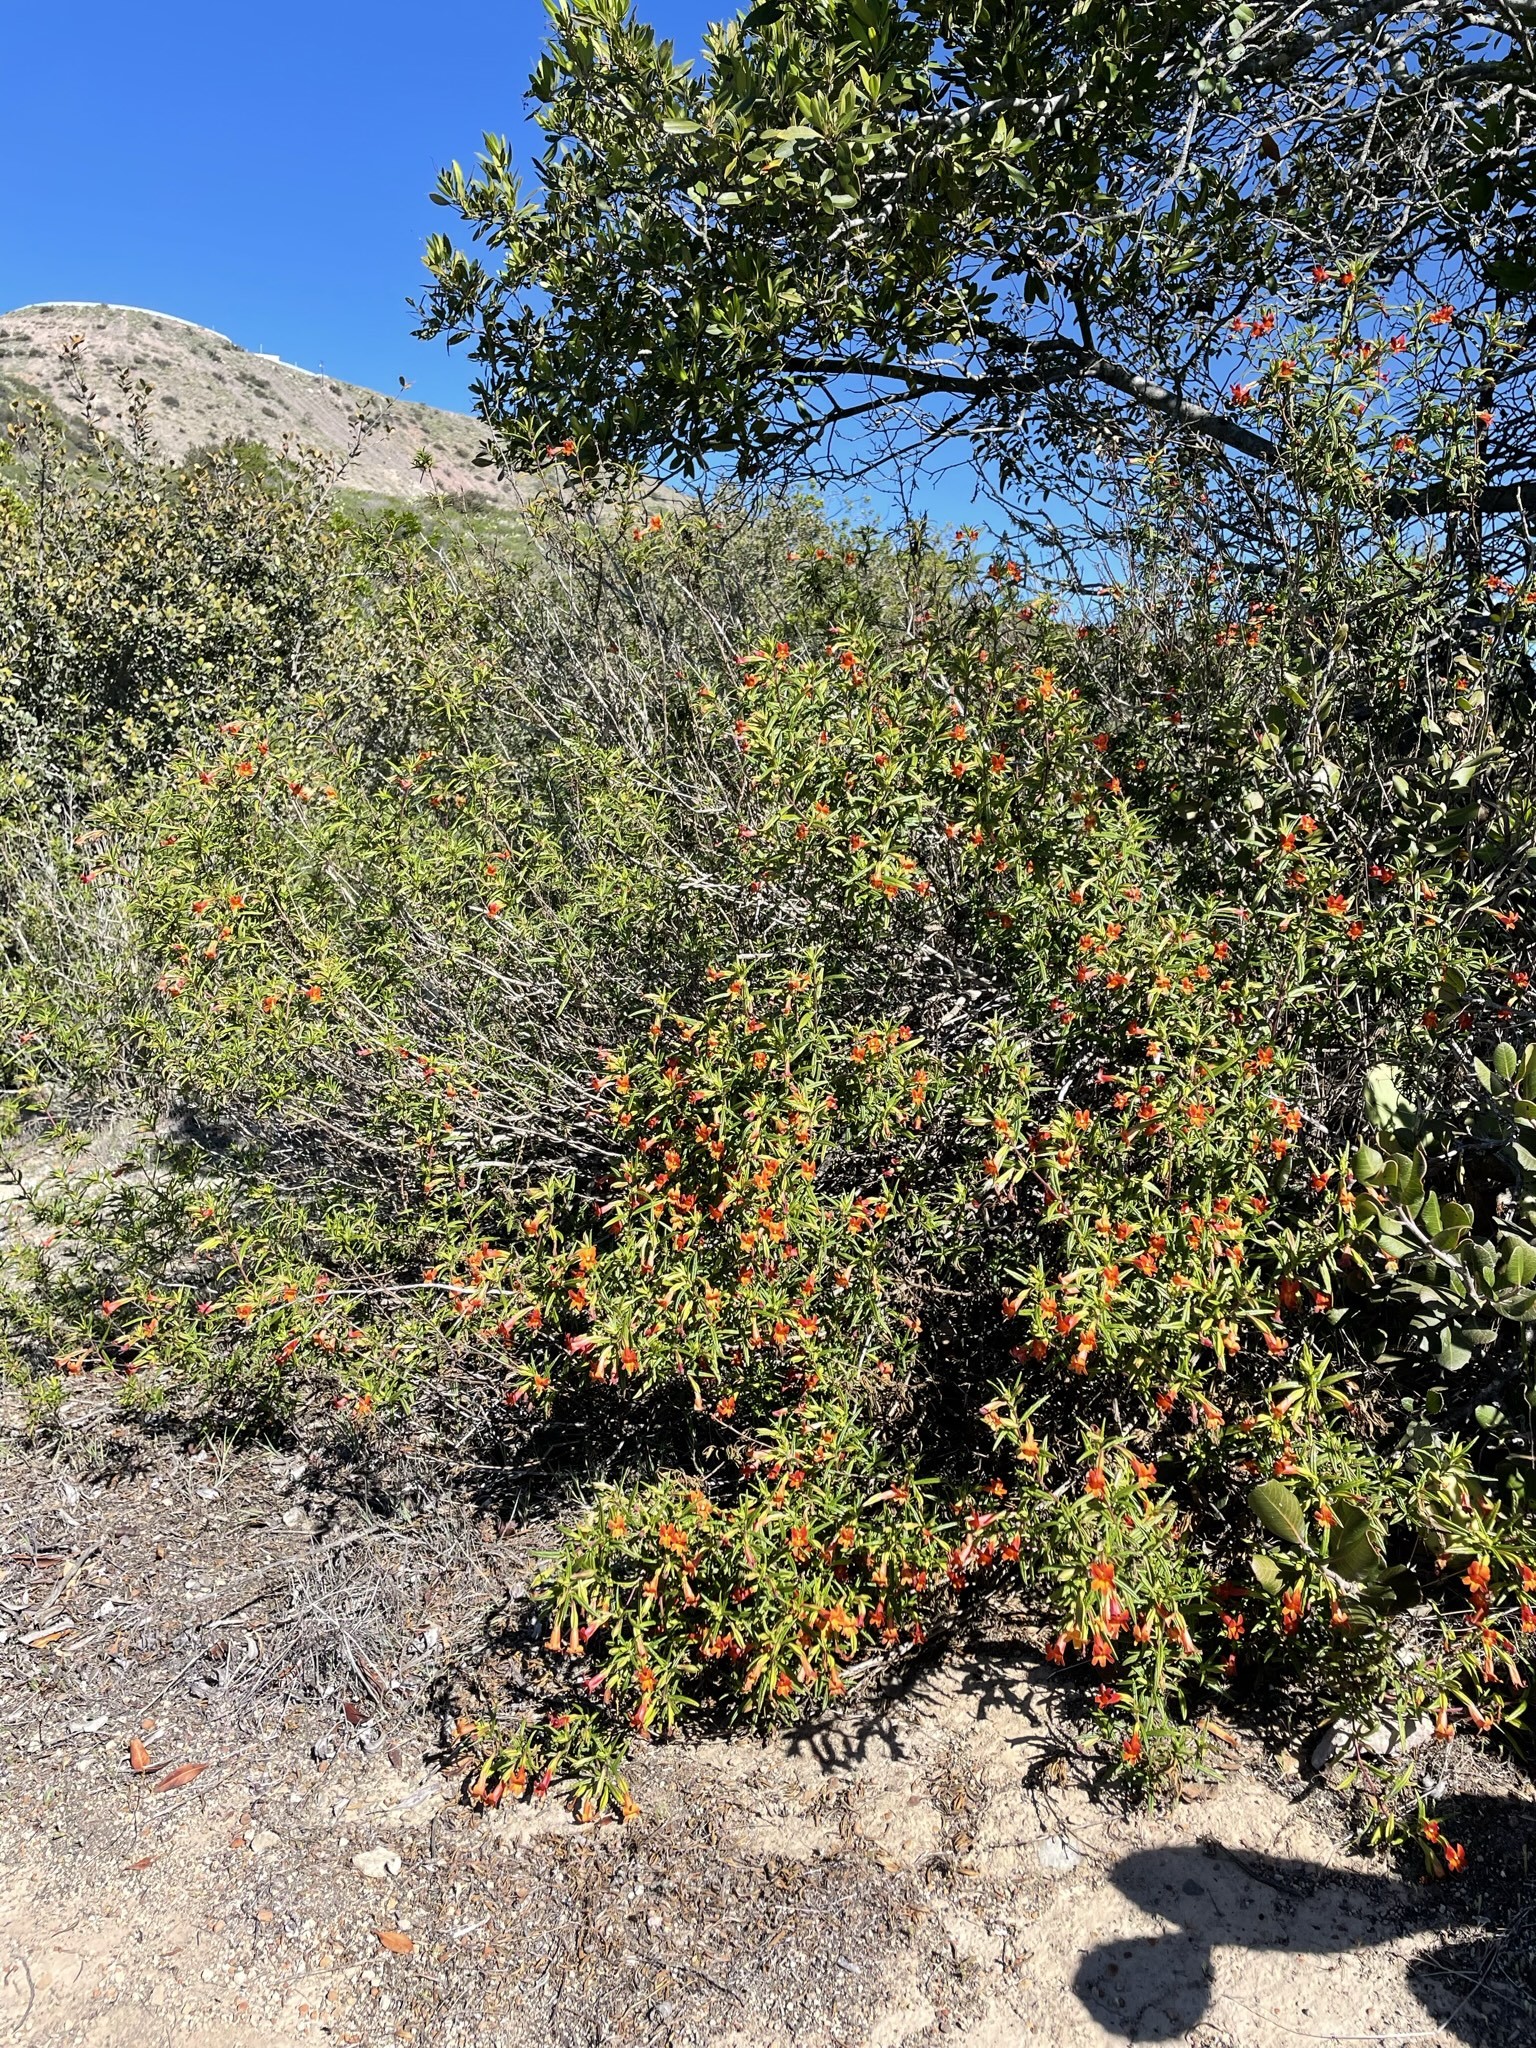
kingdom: Plantae
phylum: Tracheophyta
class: Magnoliopsida
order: Lamiales
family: Phrymaceae
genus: Diplacus
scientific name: Diplacus puniceus
